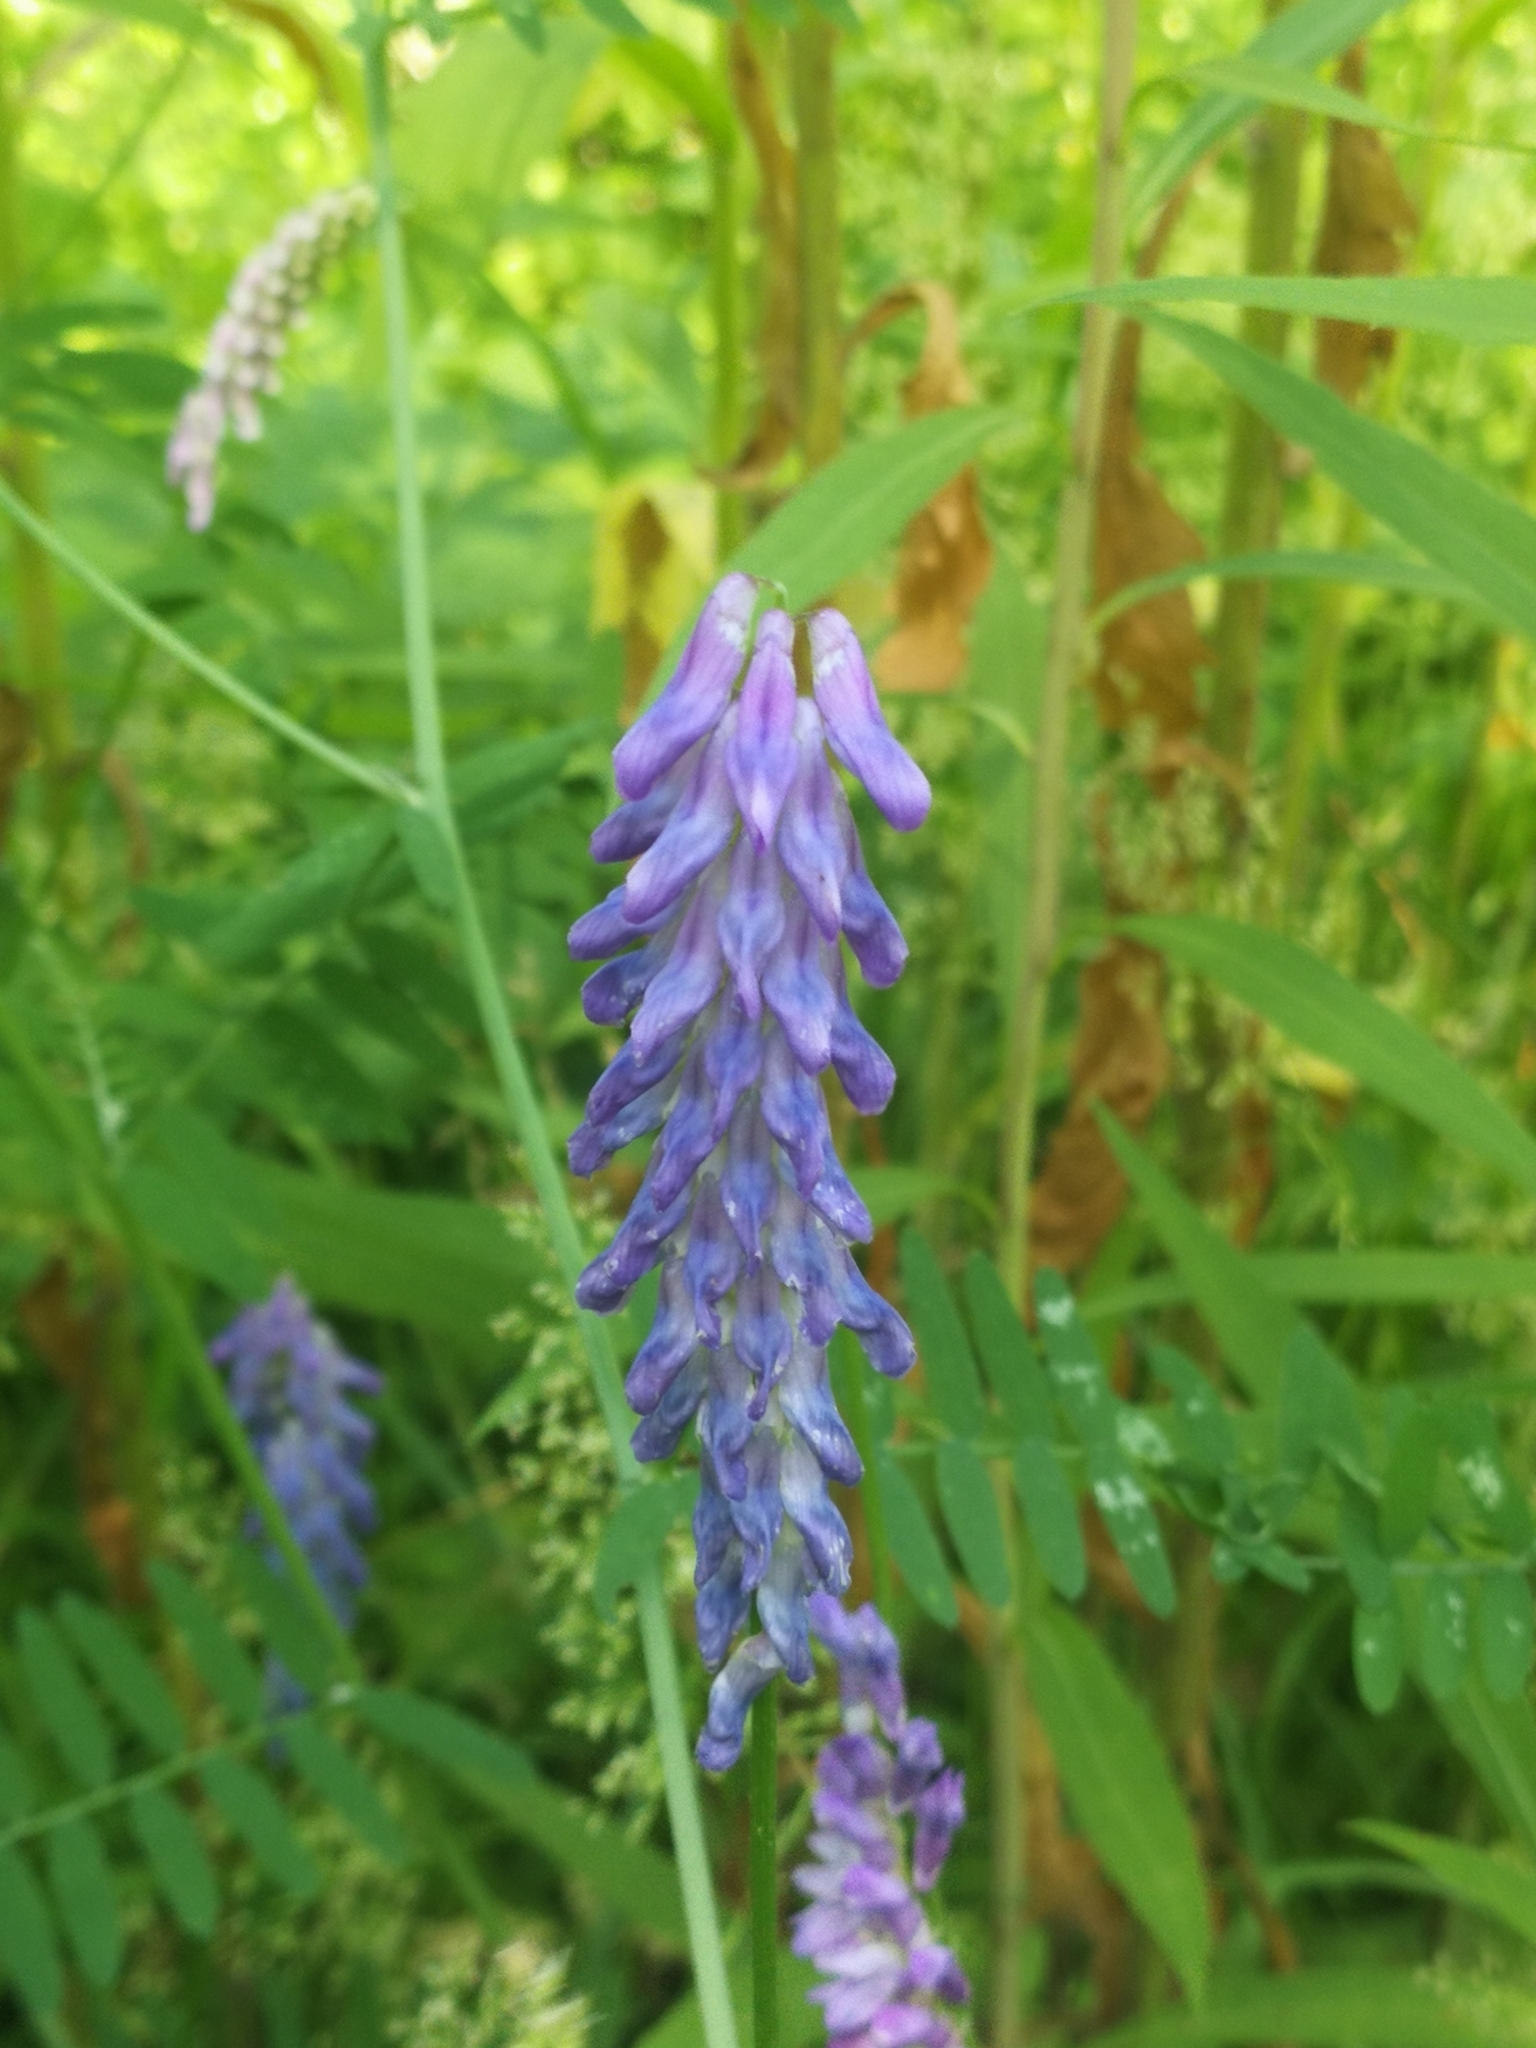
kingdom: Plantae
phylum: Tracheophyta
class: Magnoliopsida
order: Fabales
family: Fabaceae
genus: Vicia
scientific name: Vicia cracca
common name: Bird vetch
